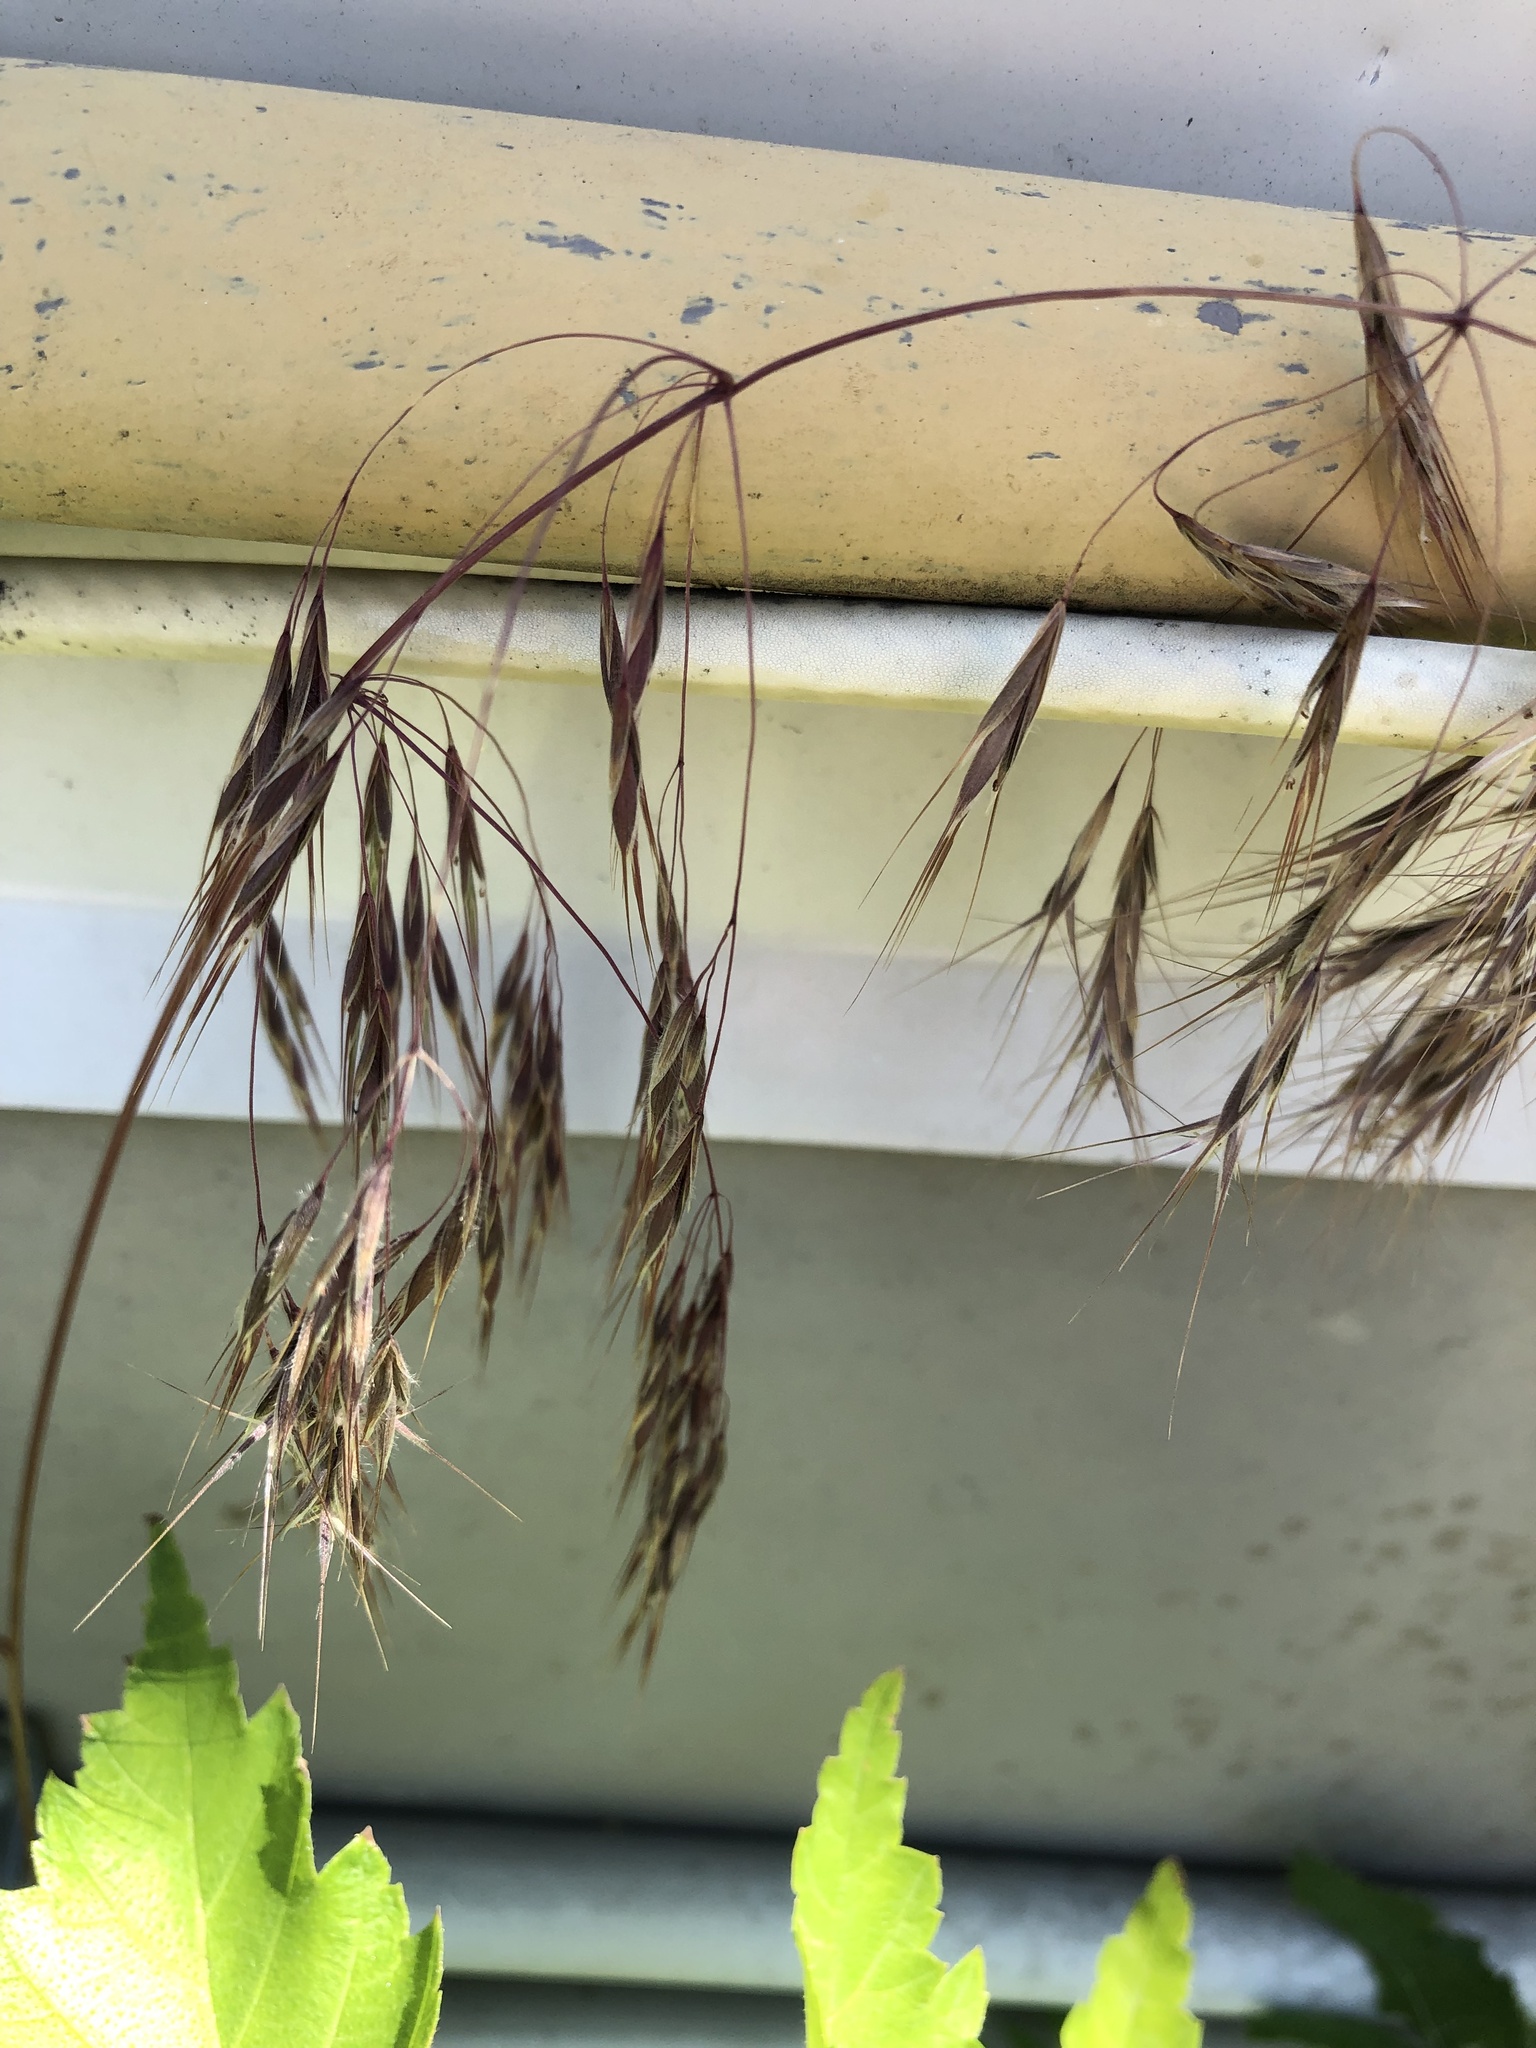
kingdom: Plantae
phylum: Tracheophyta
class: Liliopsida
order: Poales
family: Poaceae
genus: Bromus
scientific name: Bromus tectorum
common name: Cheatgrass
